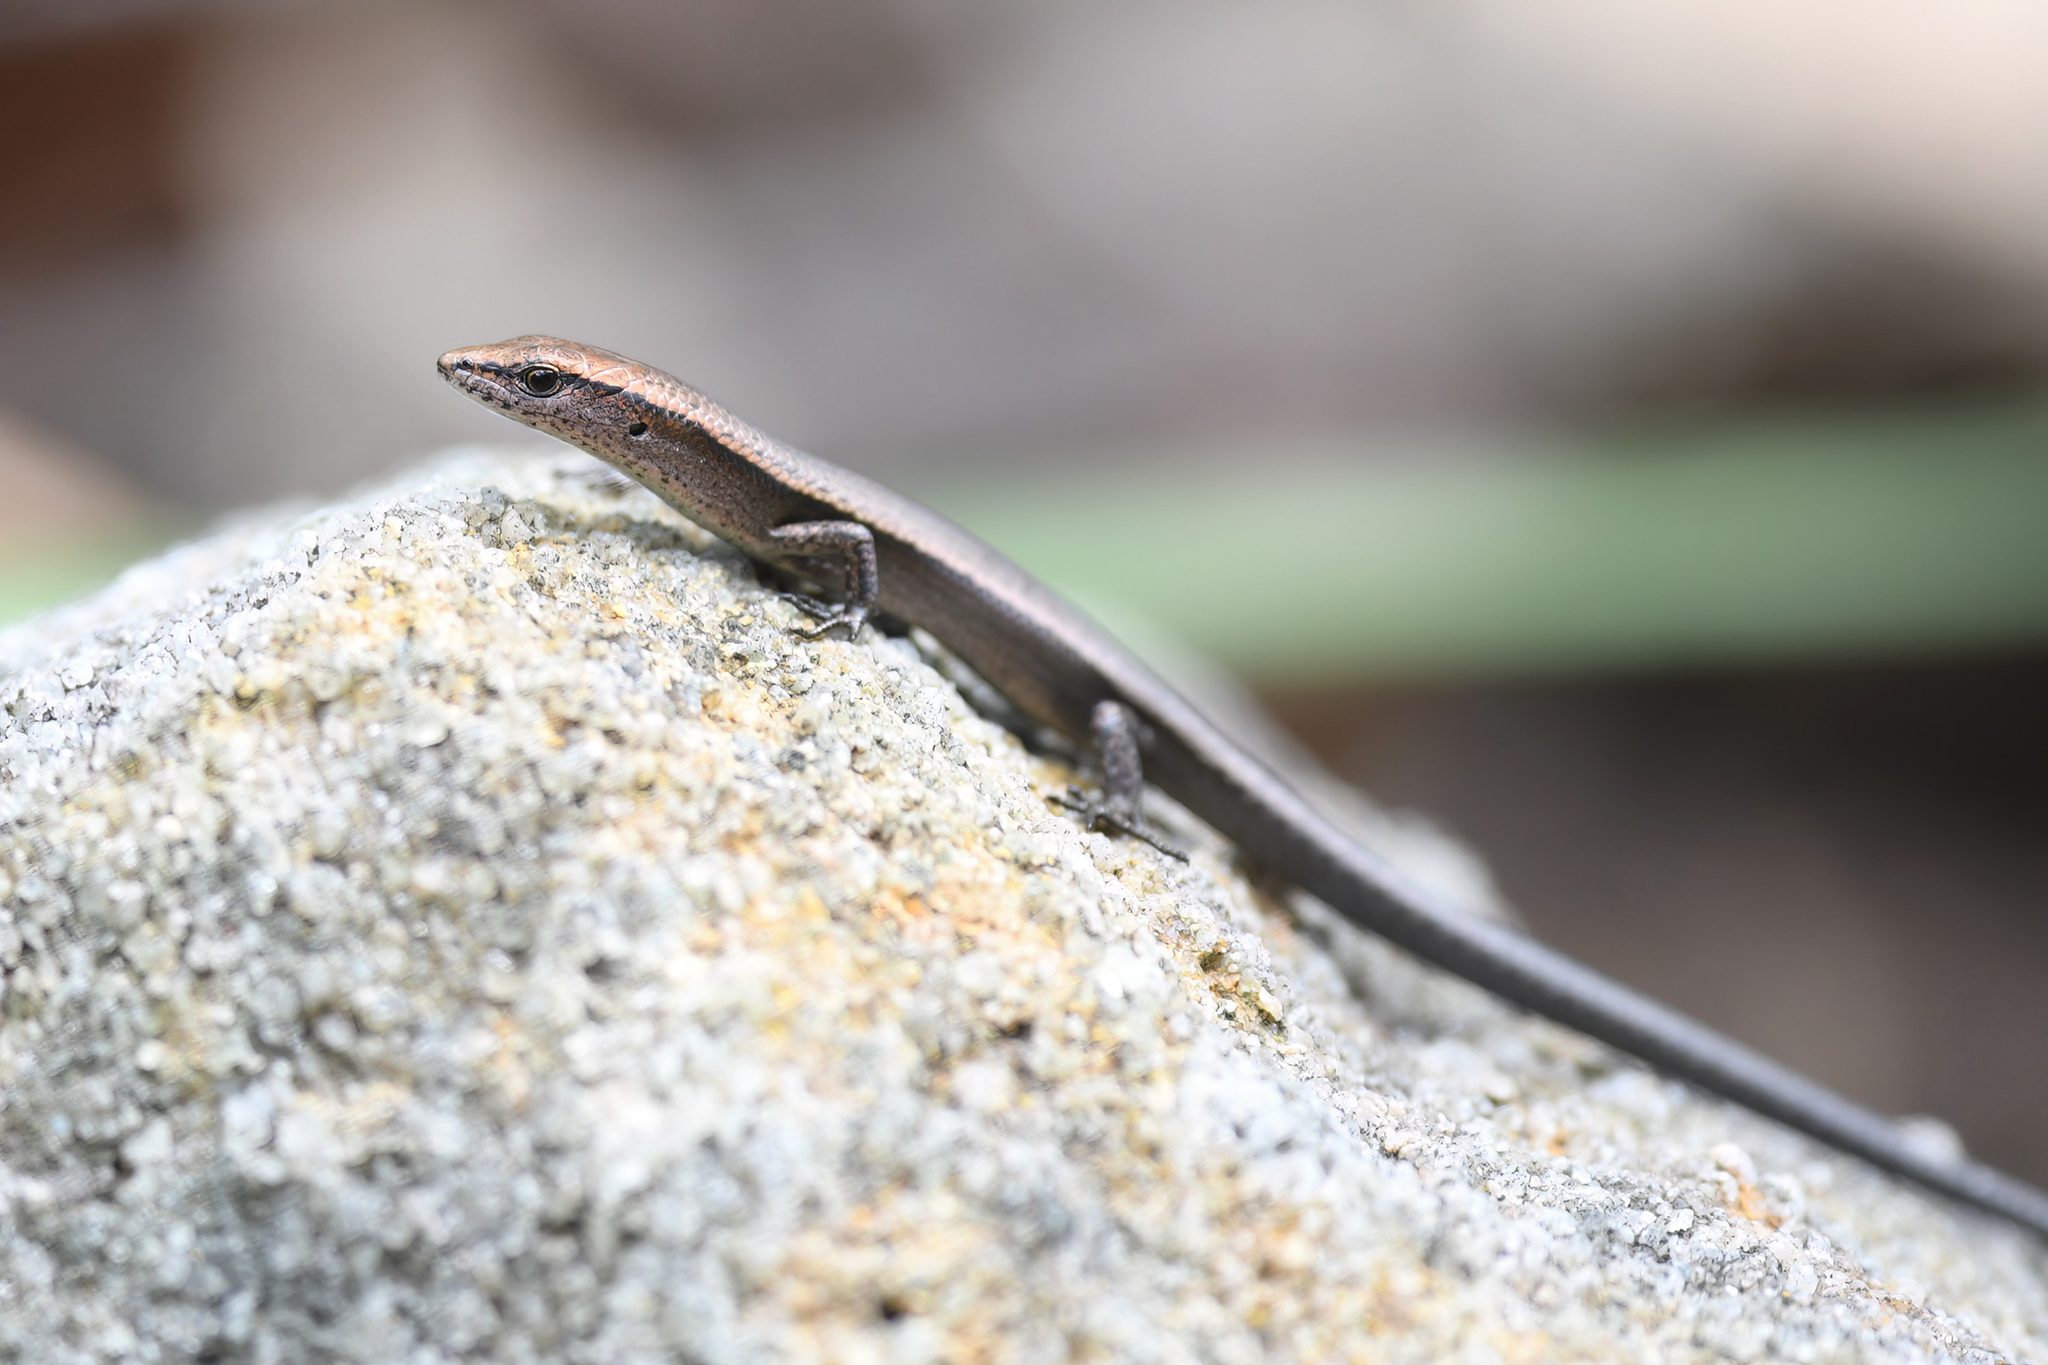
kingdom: Animalia
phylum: Chordata
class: Squamata
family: Scincidae
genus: Lampropholis
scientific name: Lampropholis delicata
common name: Plague skink
